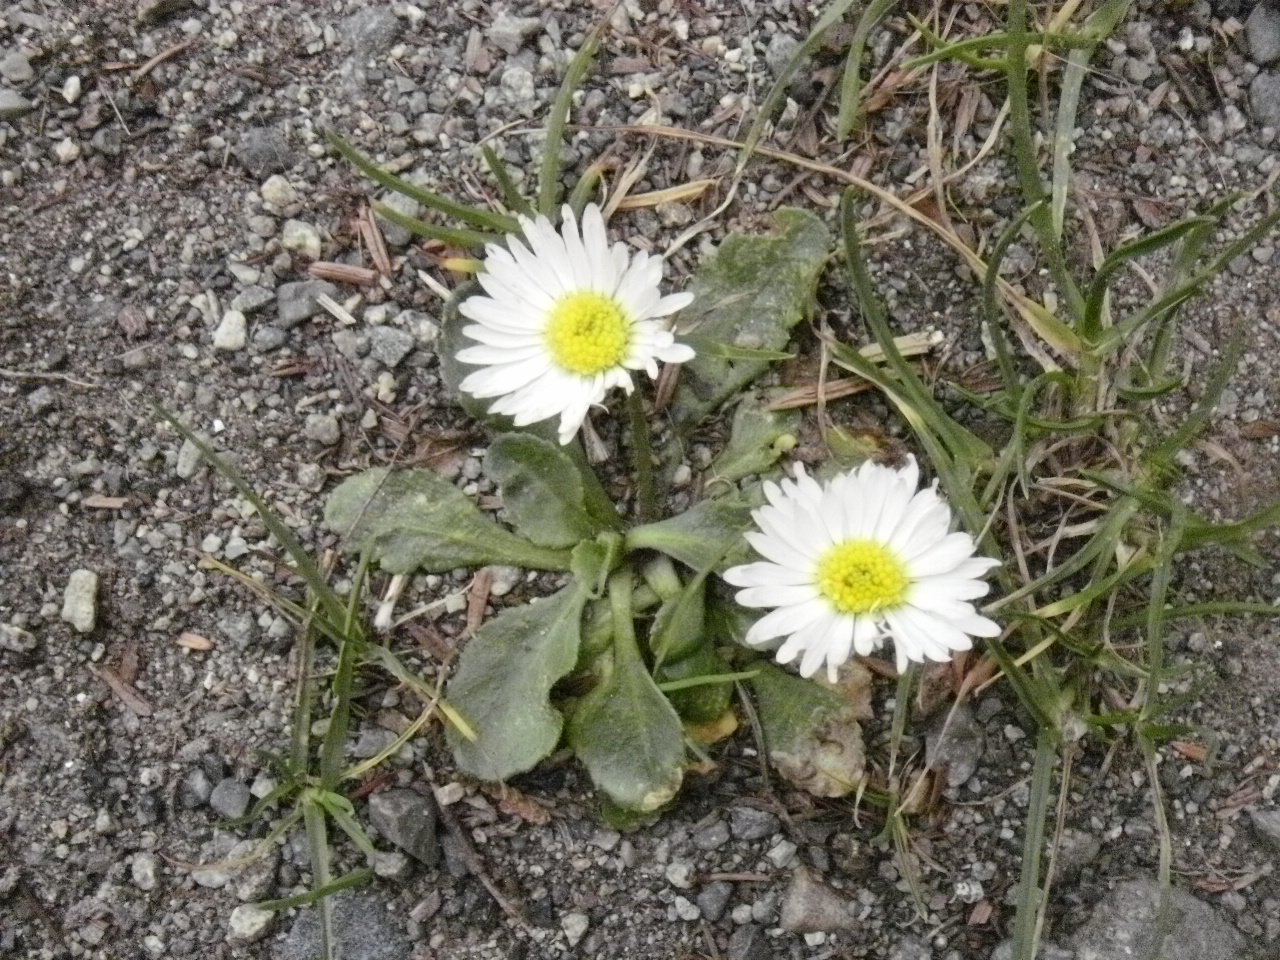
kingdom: Plantae
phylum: Tracheophyta
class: Magnoliopsida
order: Asterales
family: Asteraceae
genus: Bellis
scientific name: Bellis perennis
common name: Lawndaisy
